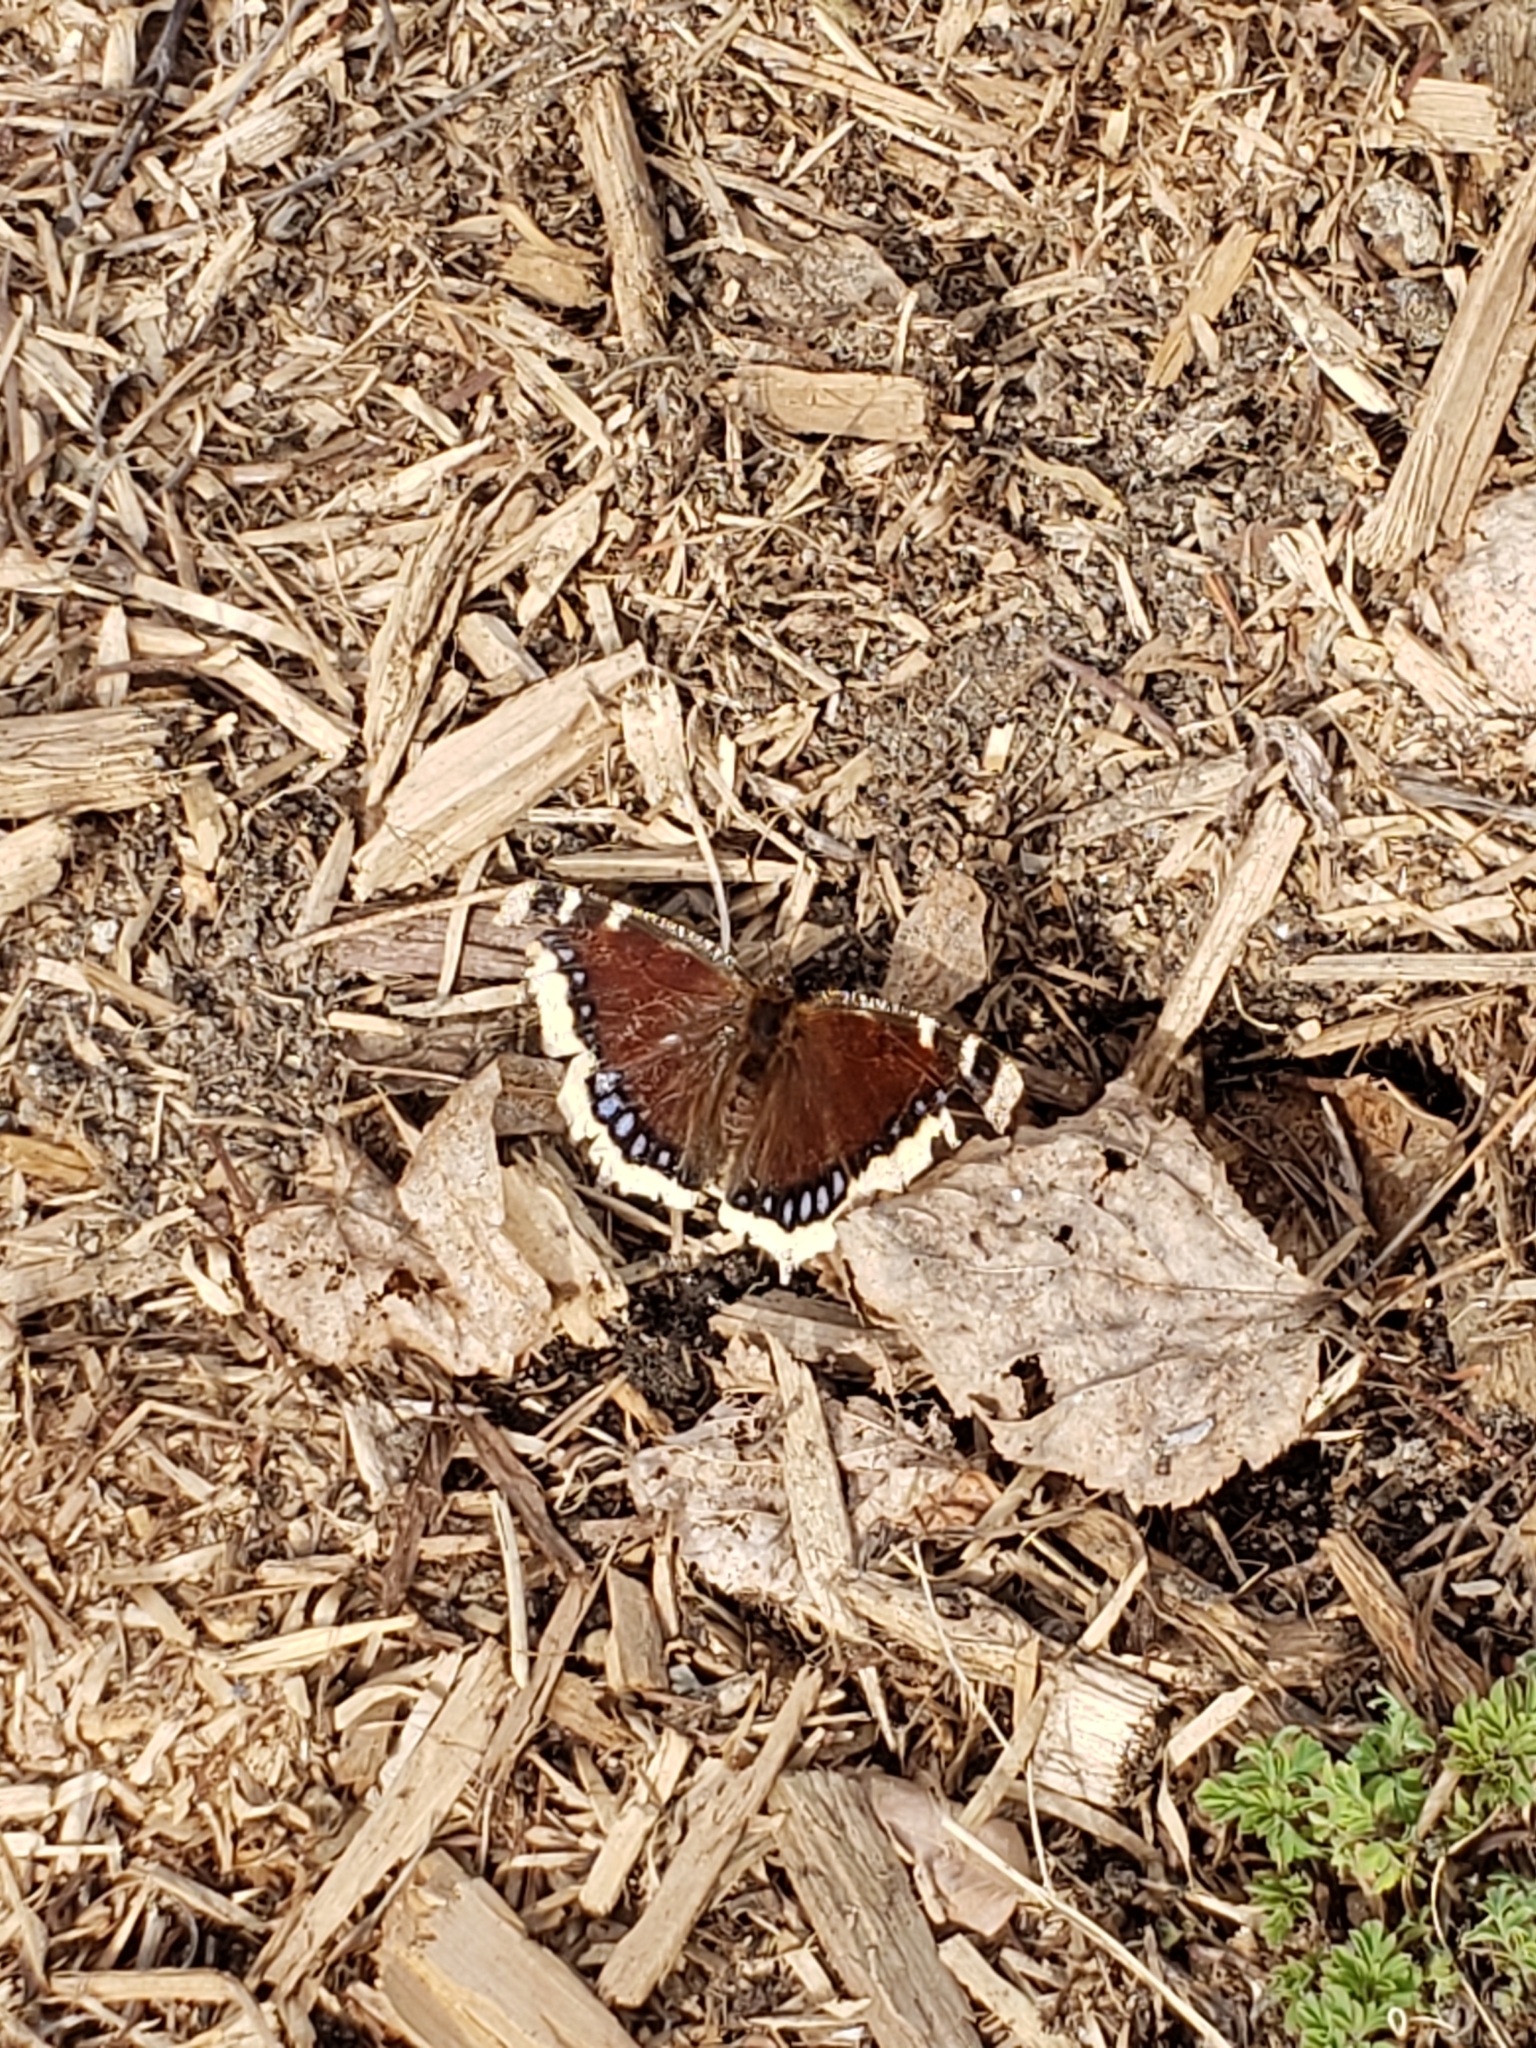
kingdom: Animalia
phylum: Arthropoda
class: Insecta
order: Lepidoptera
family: Nymphalidae
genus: Nymphalis
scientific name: Nymphalis antiopa
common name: Camberwell beauty
